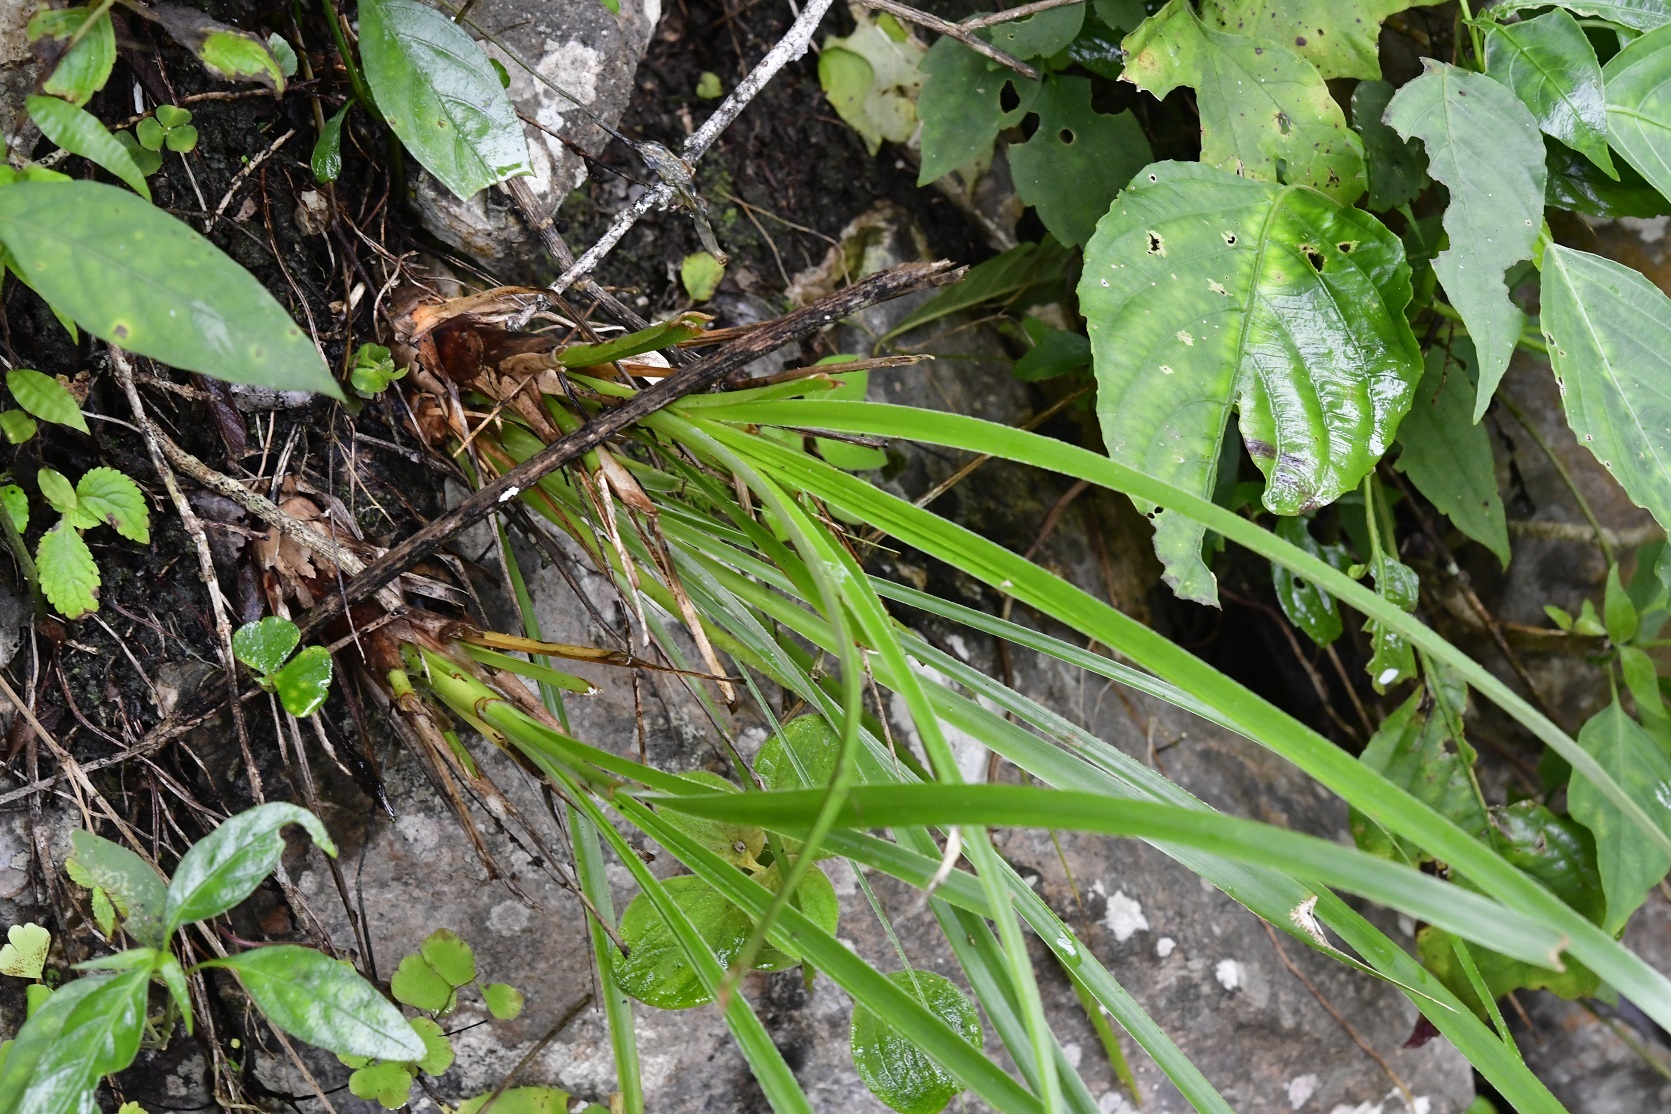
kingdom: Plantae
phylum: Tracheophyta
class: Liliopsida
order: Poales
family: Bromeliaceae
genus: Pitcairnia
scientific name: Pitcairnia heterophylla
